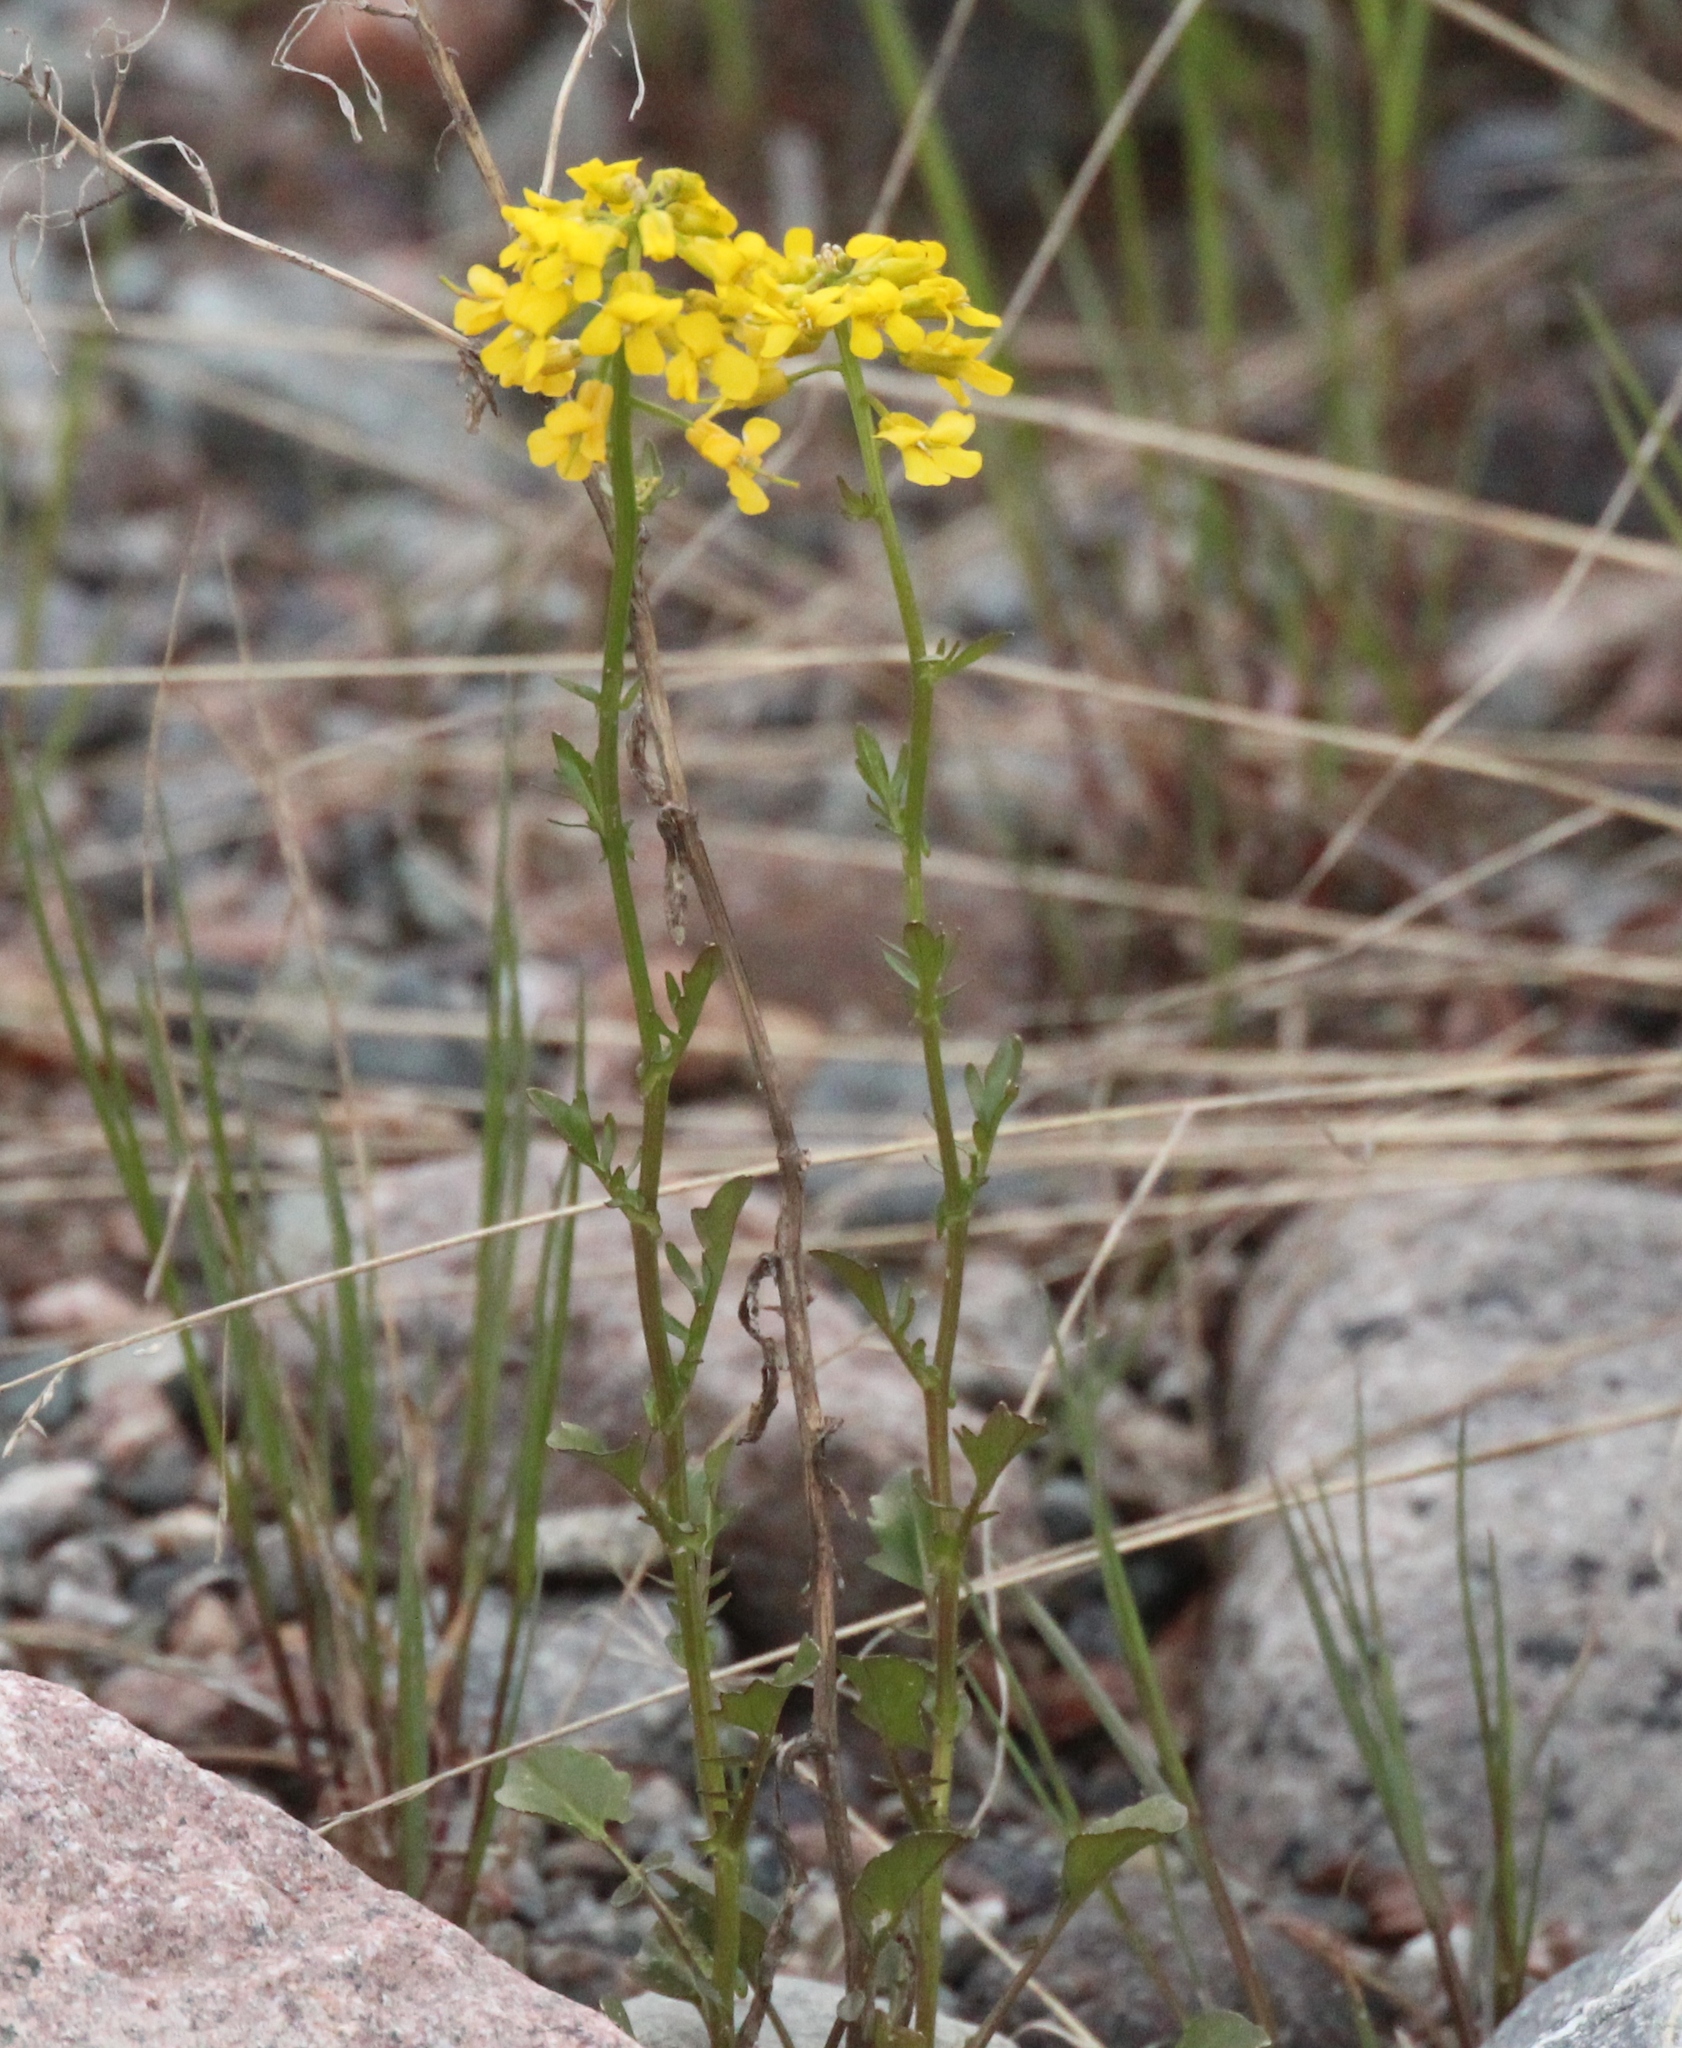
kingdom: Plantae
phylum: Tracheophyta
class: Magnoliopsida
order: Brassicales
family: Brassicaceae
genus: Barbarea
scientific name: Barbarea vulgaris
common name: Cressy-greens
